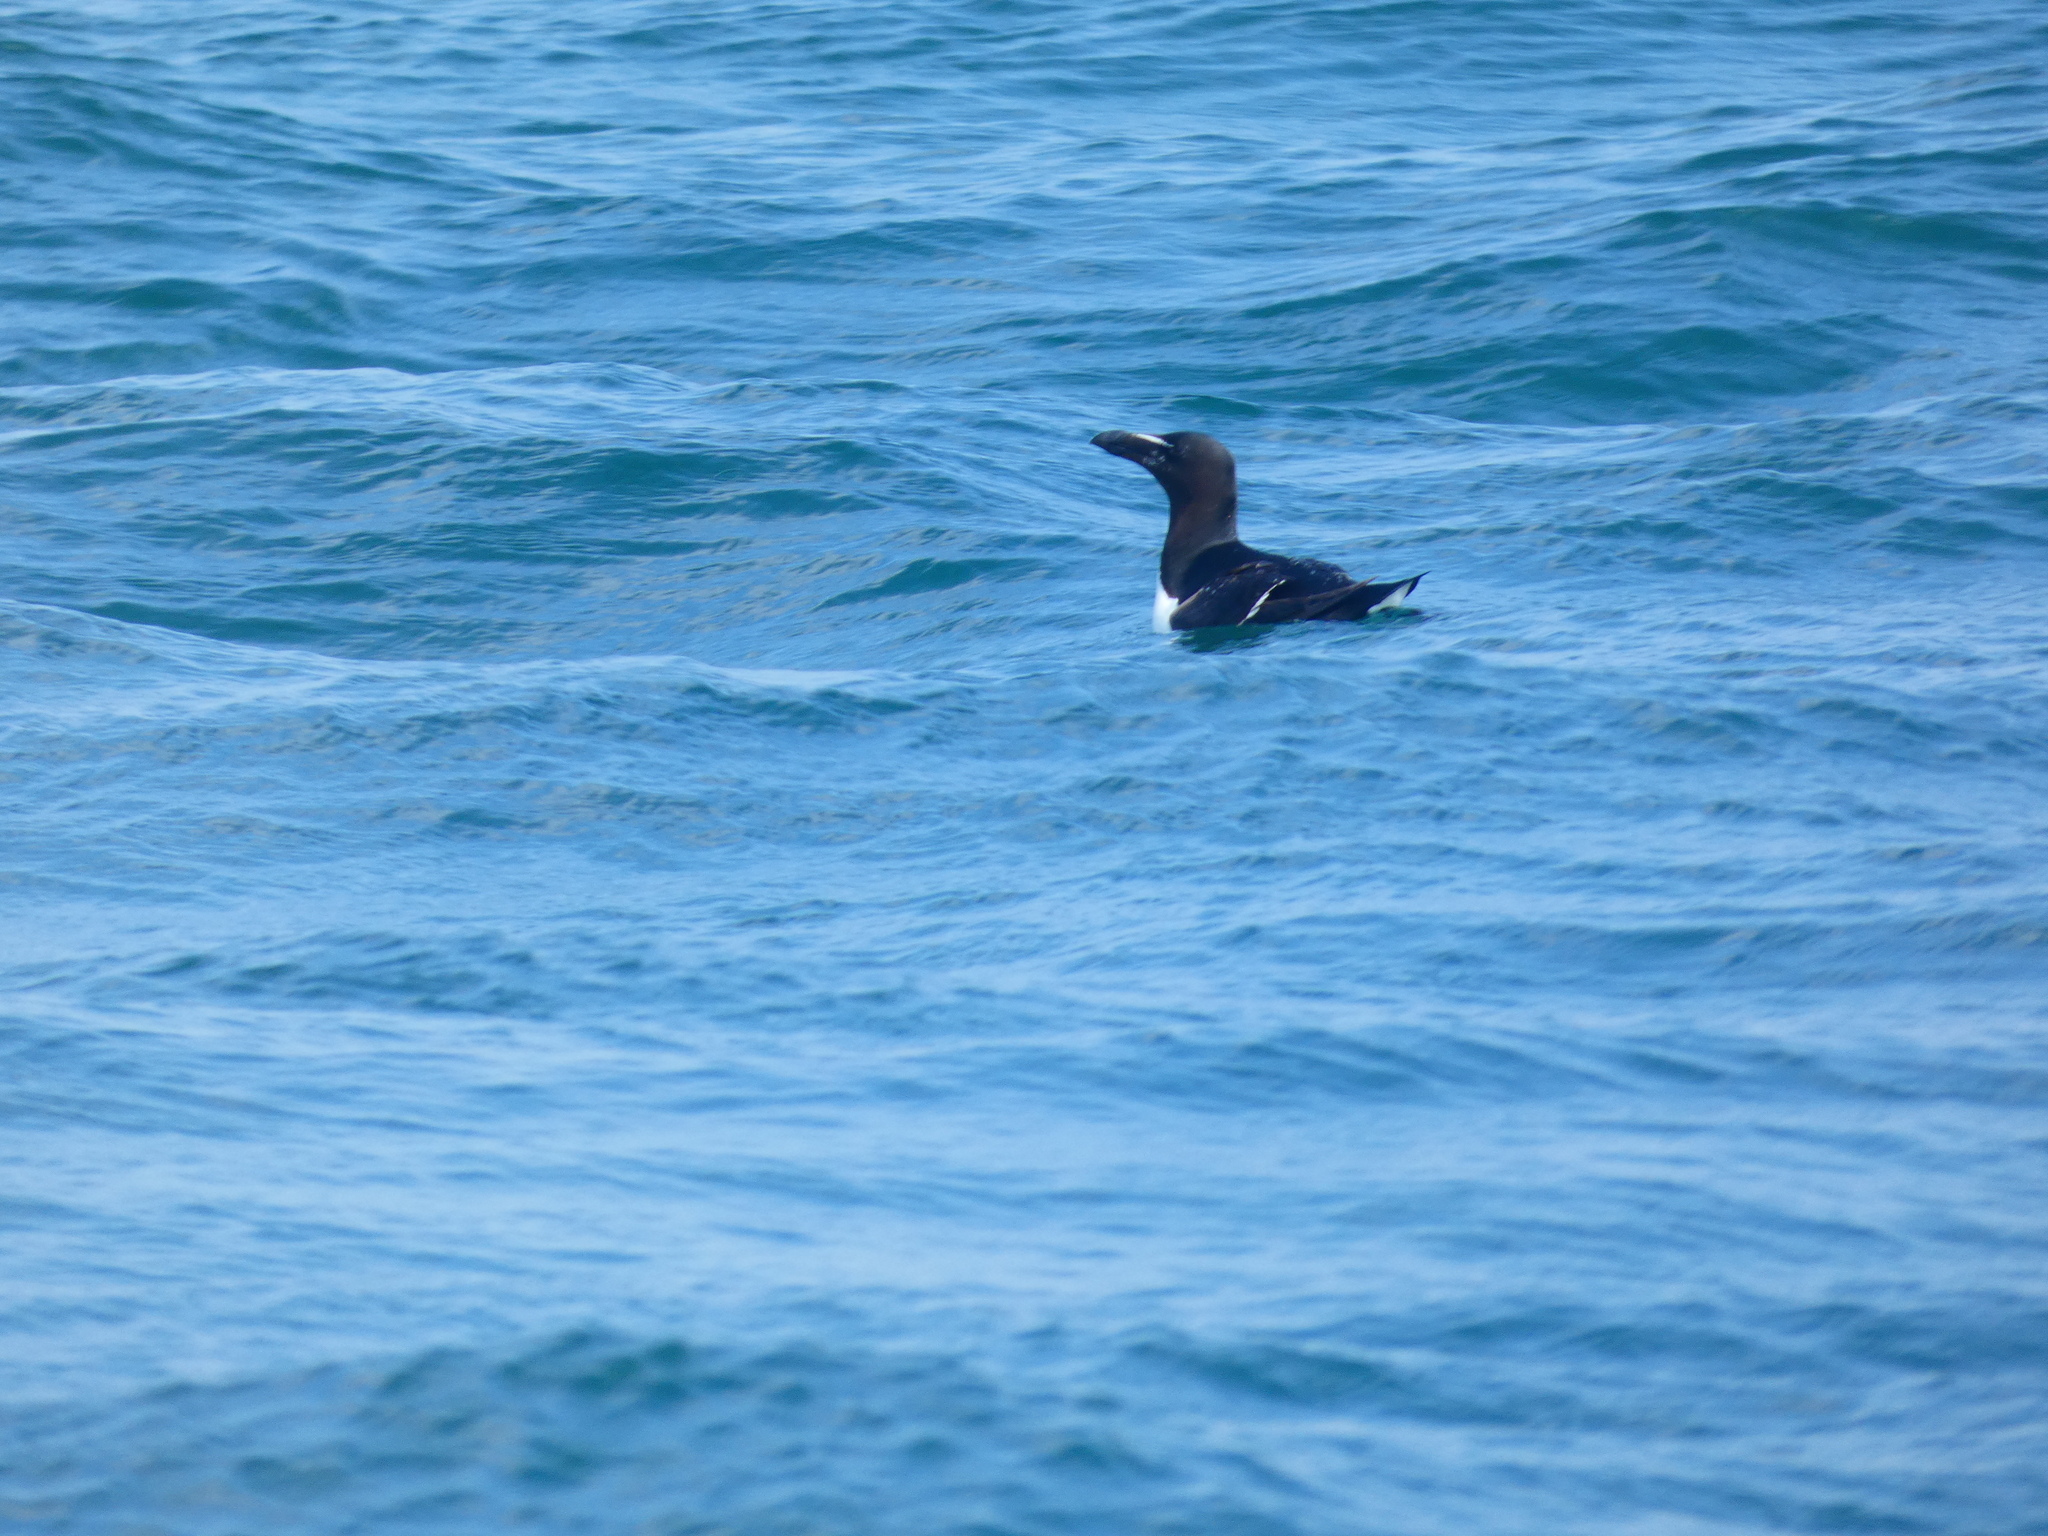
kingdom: Animalia
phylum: Chordata
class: Aves
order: Charadriiformes
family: Alcidae
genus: Alca
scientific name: Alca torda
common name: Razorbill
